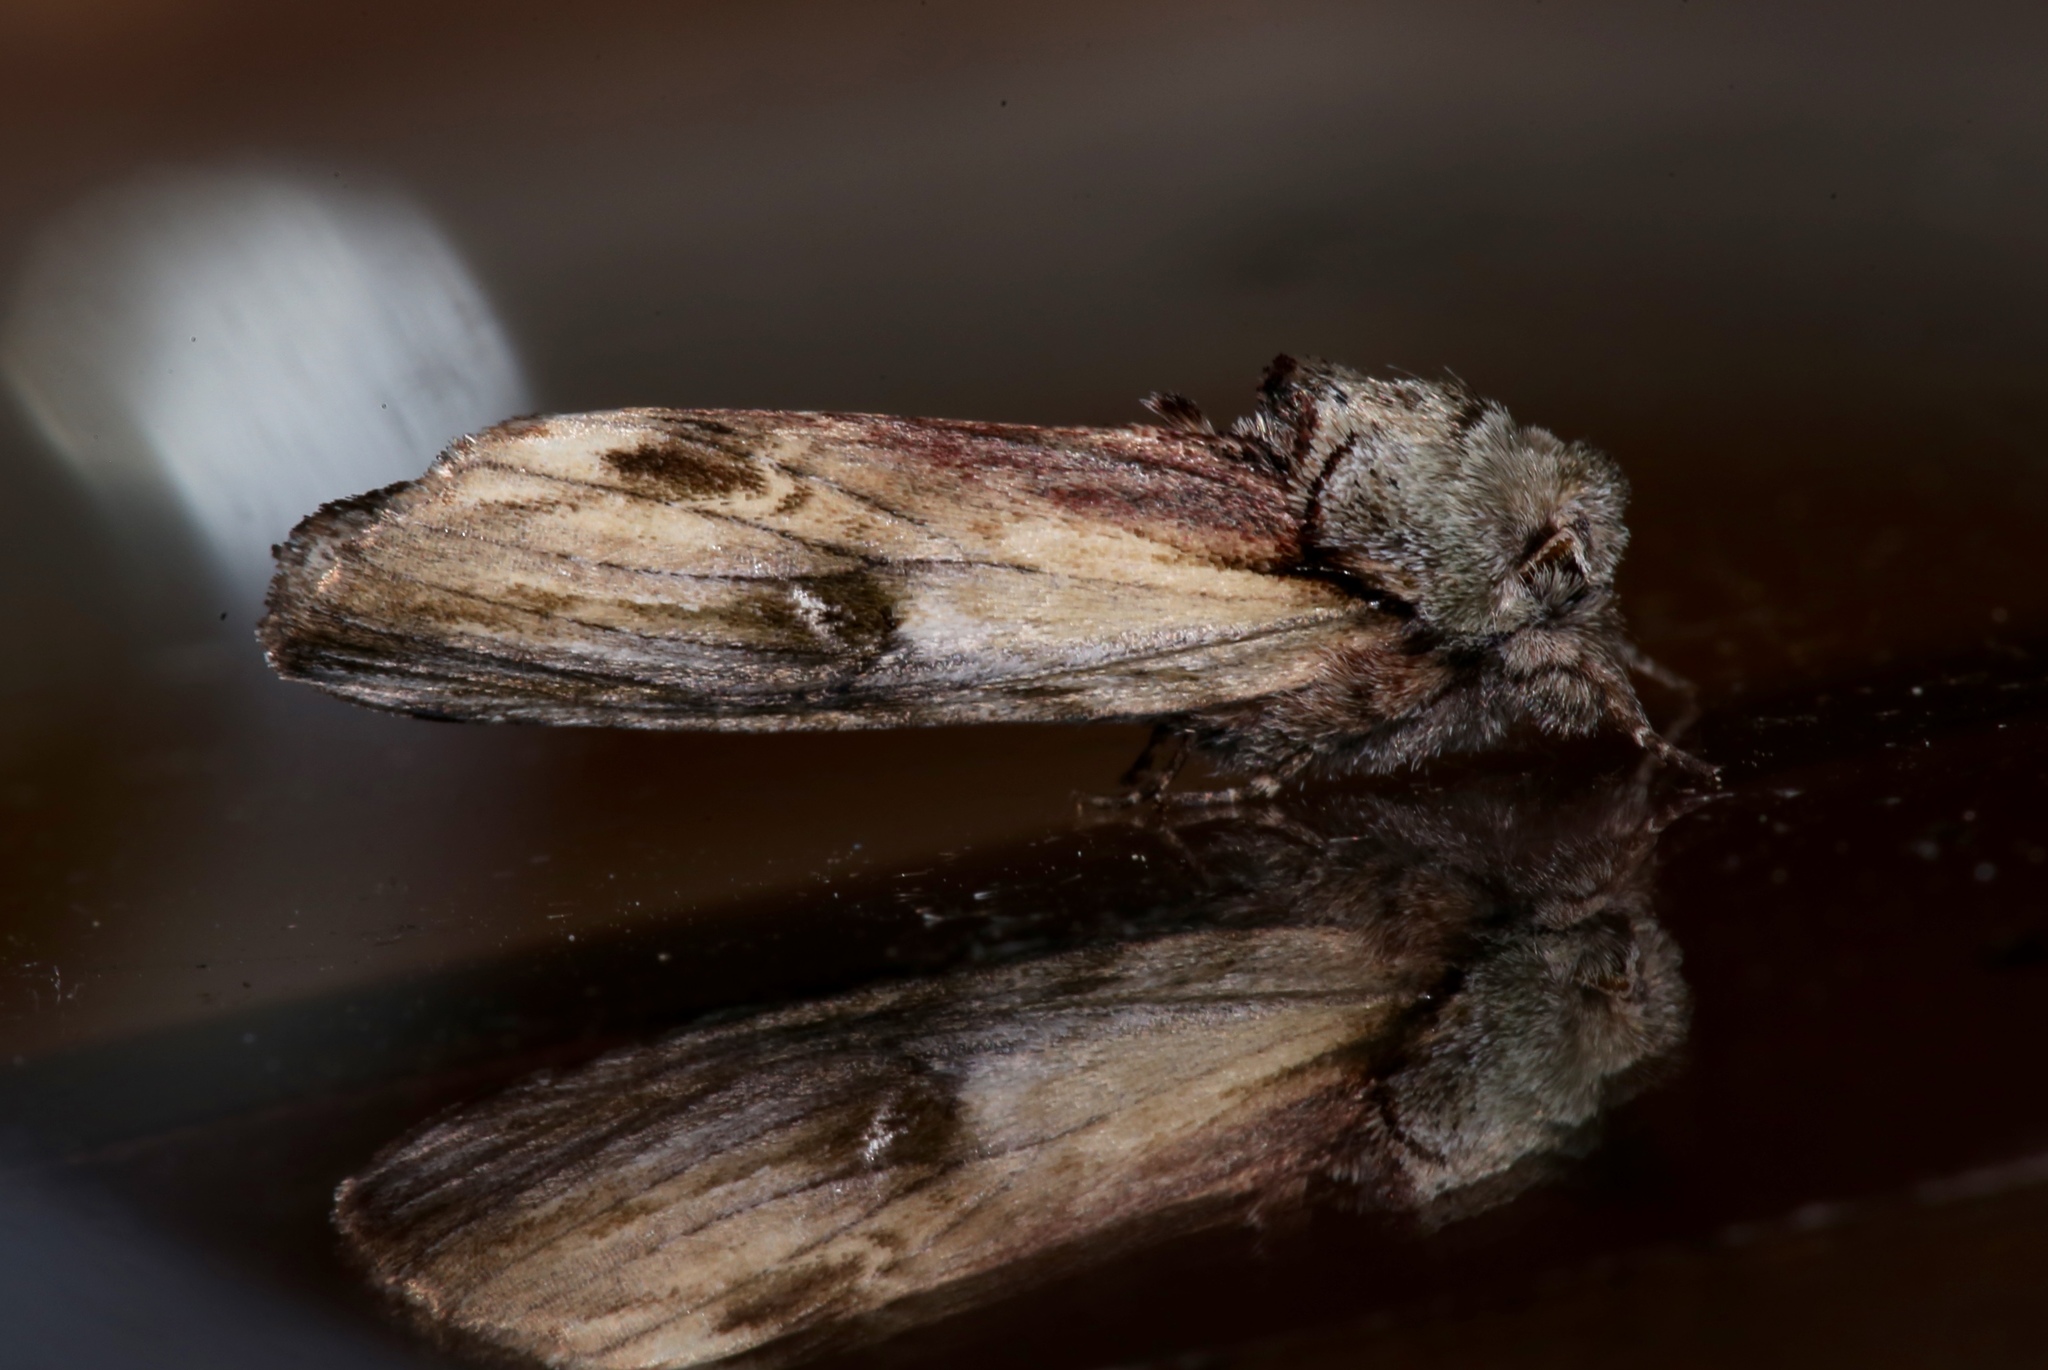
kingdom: Animalia
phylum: Arthropoda
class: Insecta
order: Lepidoptera
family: Notodontidae
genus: Schizura
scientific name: Schizura
